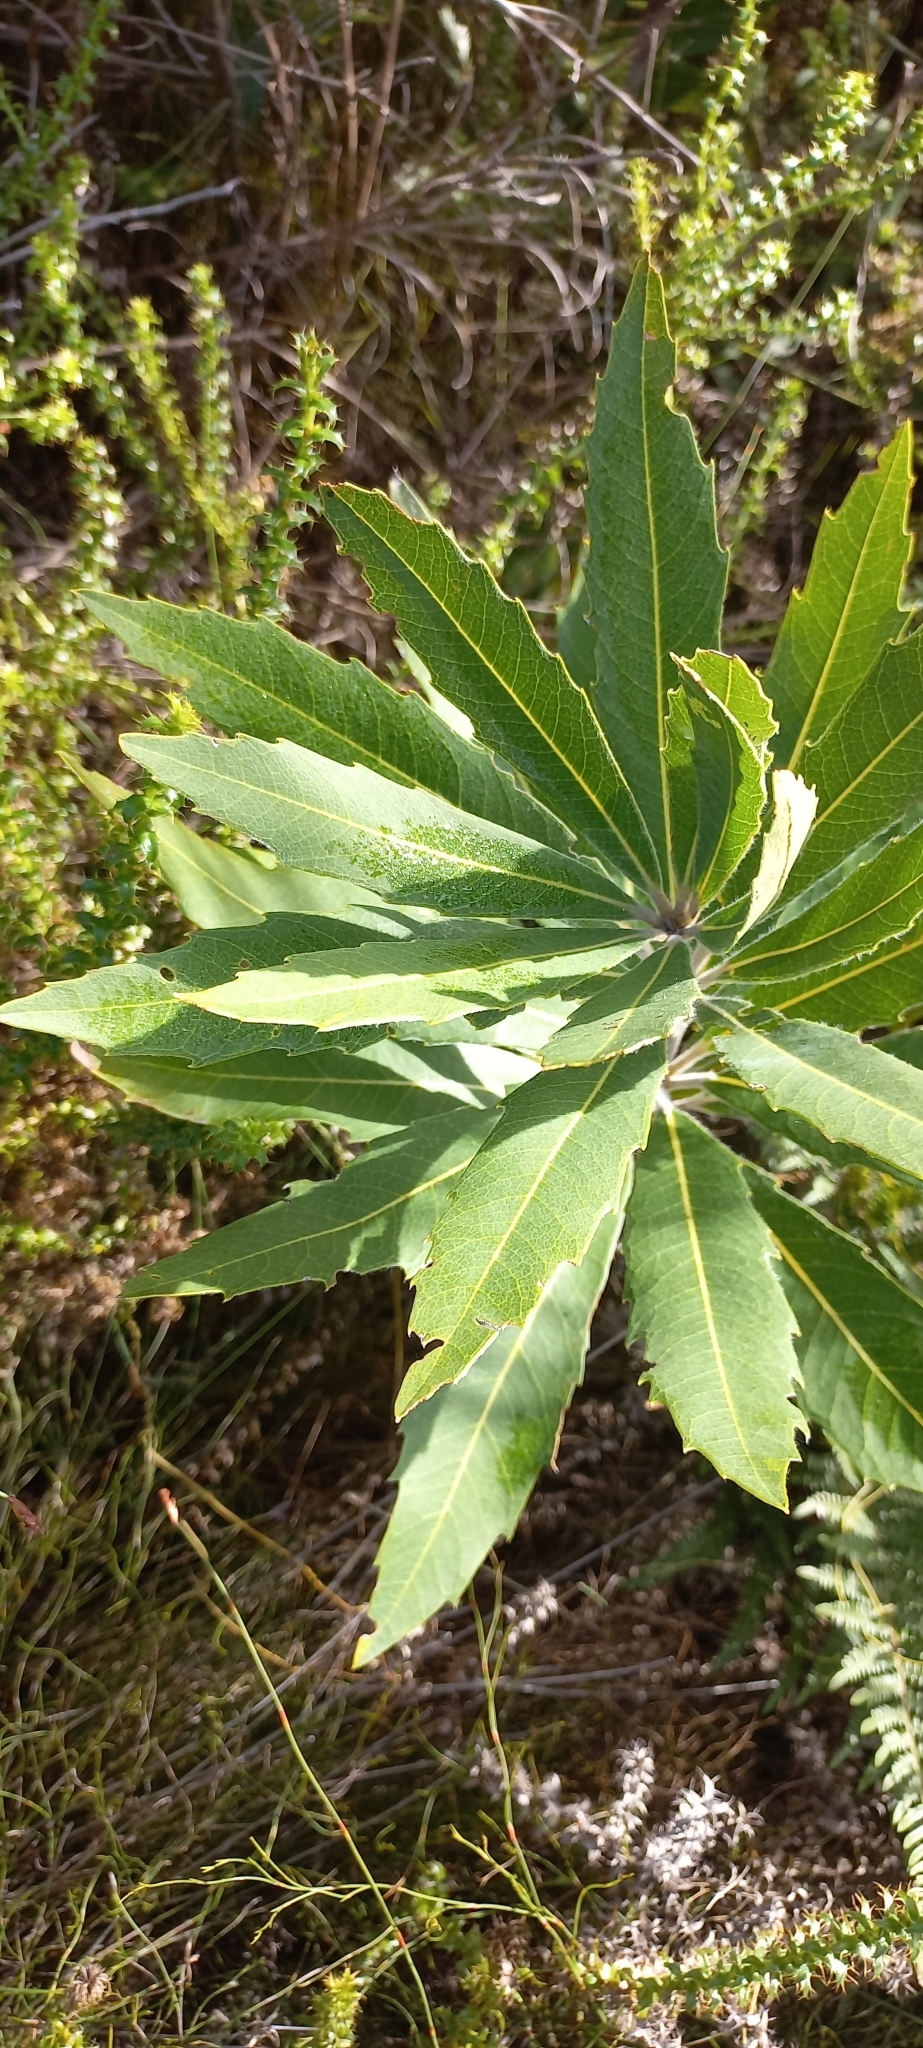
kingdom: Plantae
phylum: Tracheophyta
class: Magnoliopsida
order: Proteales
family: Proteaceae
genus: Brabejum
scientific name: Brabejum stellatifolium
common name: Wild almond
